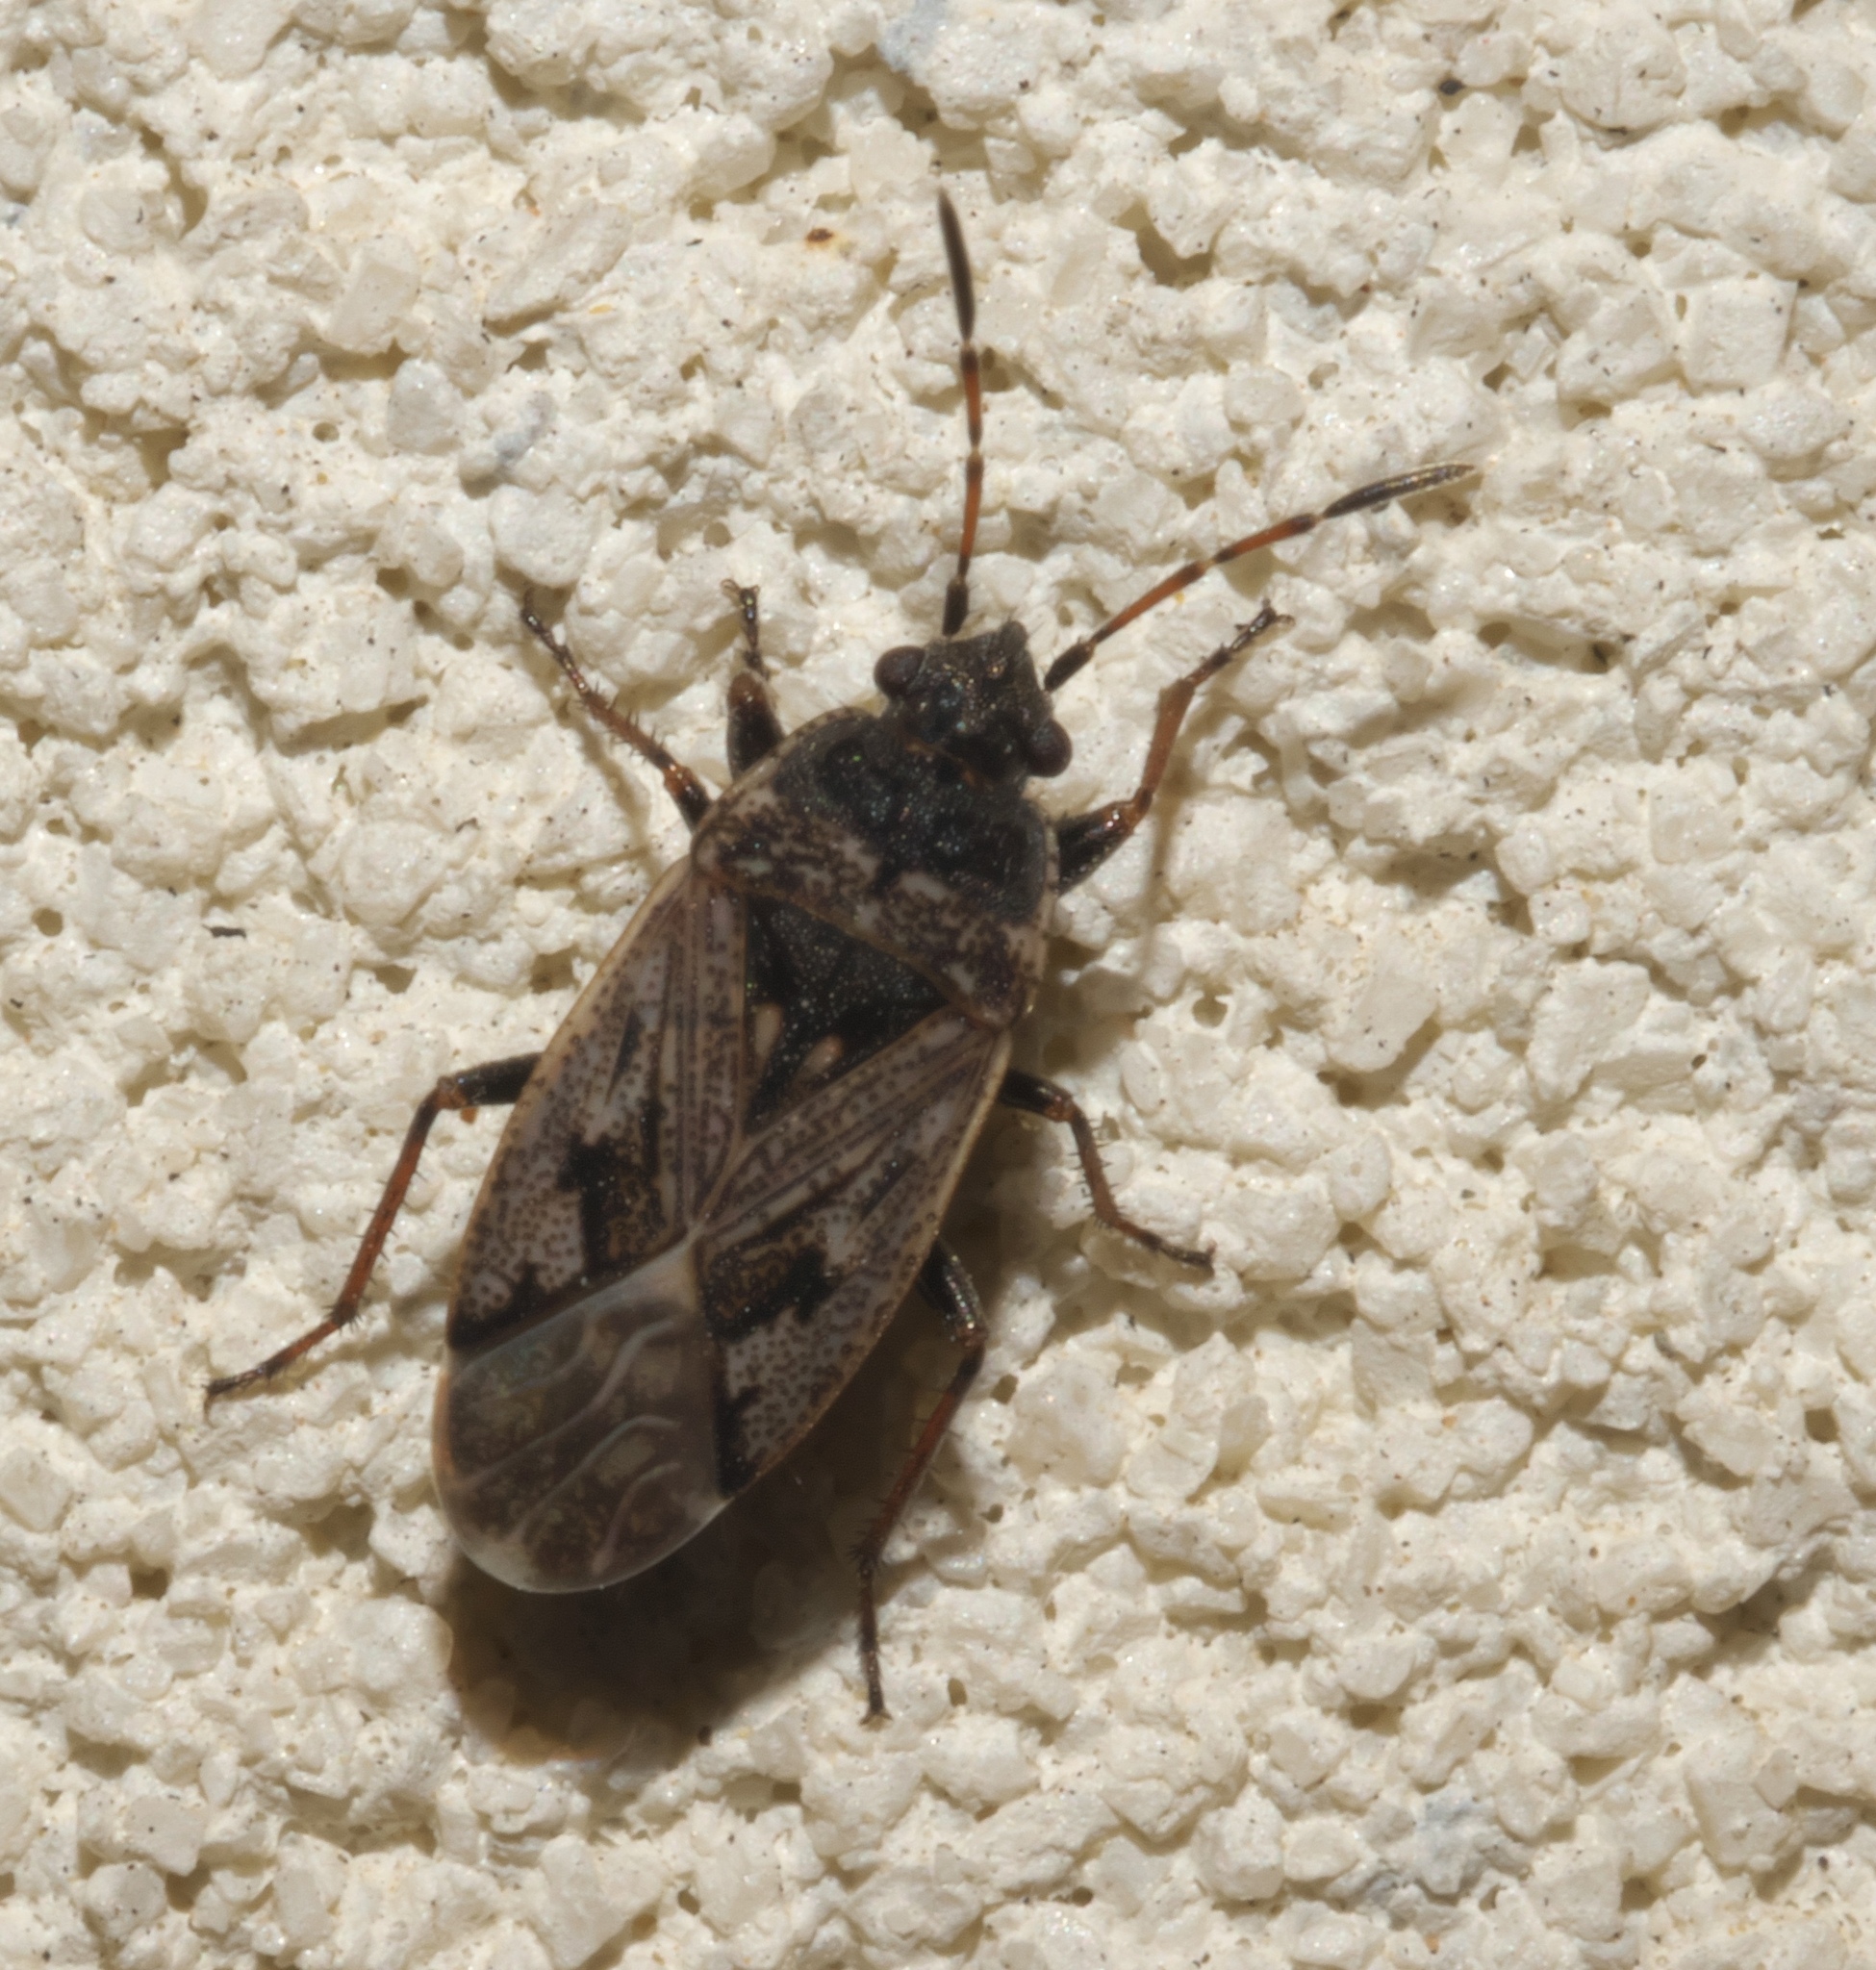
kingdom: Animalia
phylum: Arthropoda
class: Insecta
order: Hemiptera
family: Rhyparochromidae
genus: Sphragisticus
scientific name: Sphragisticus nebulosus
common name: Dirt-colored seed bug
